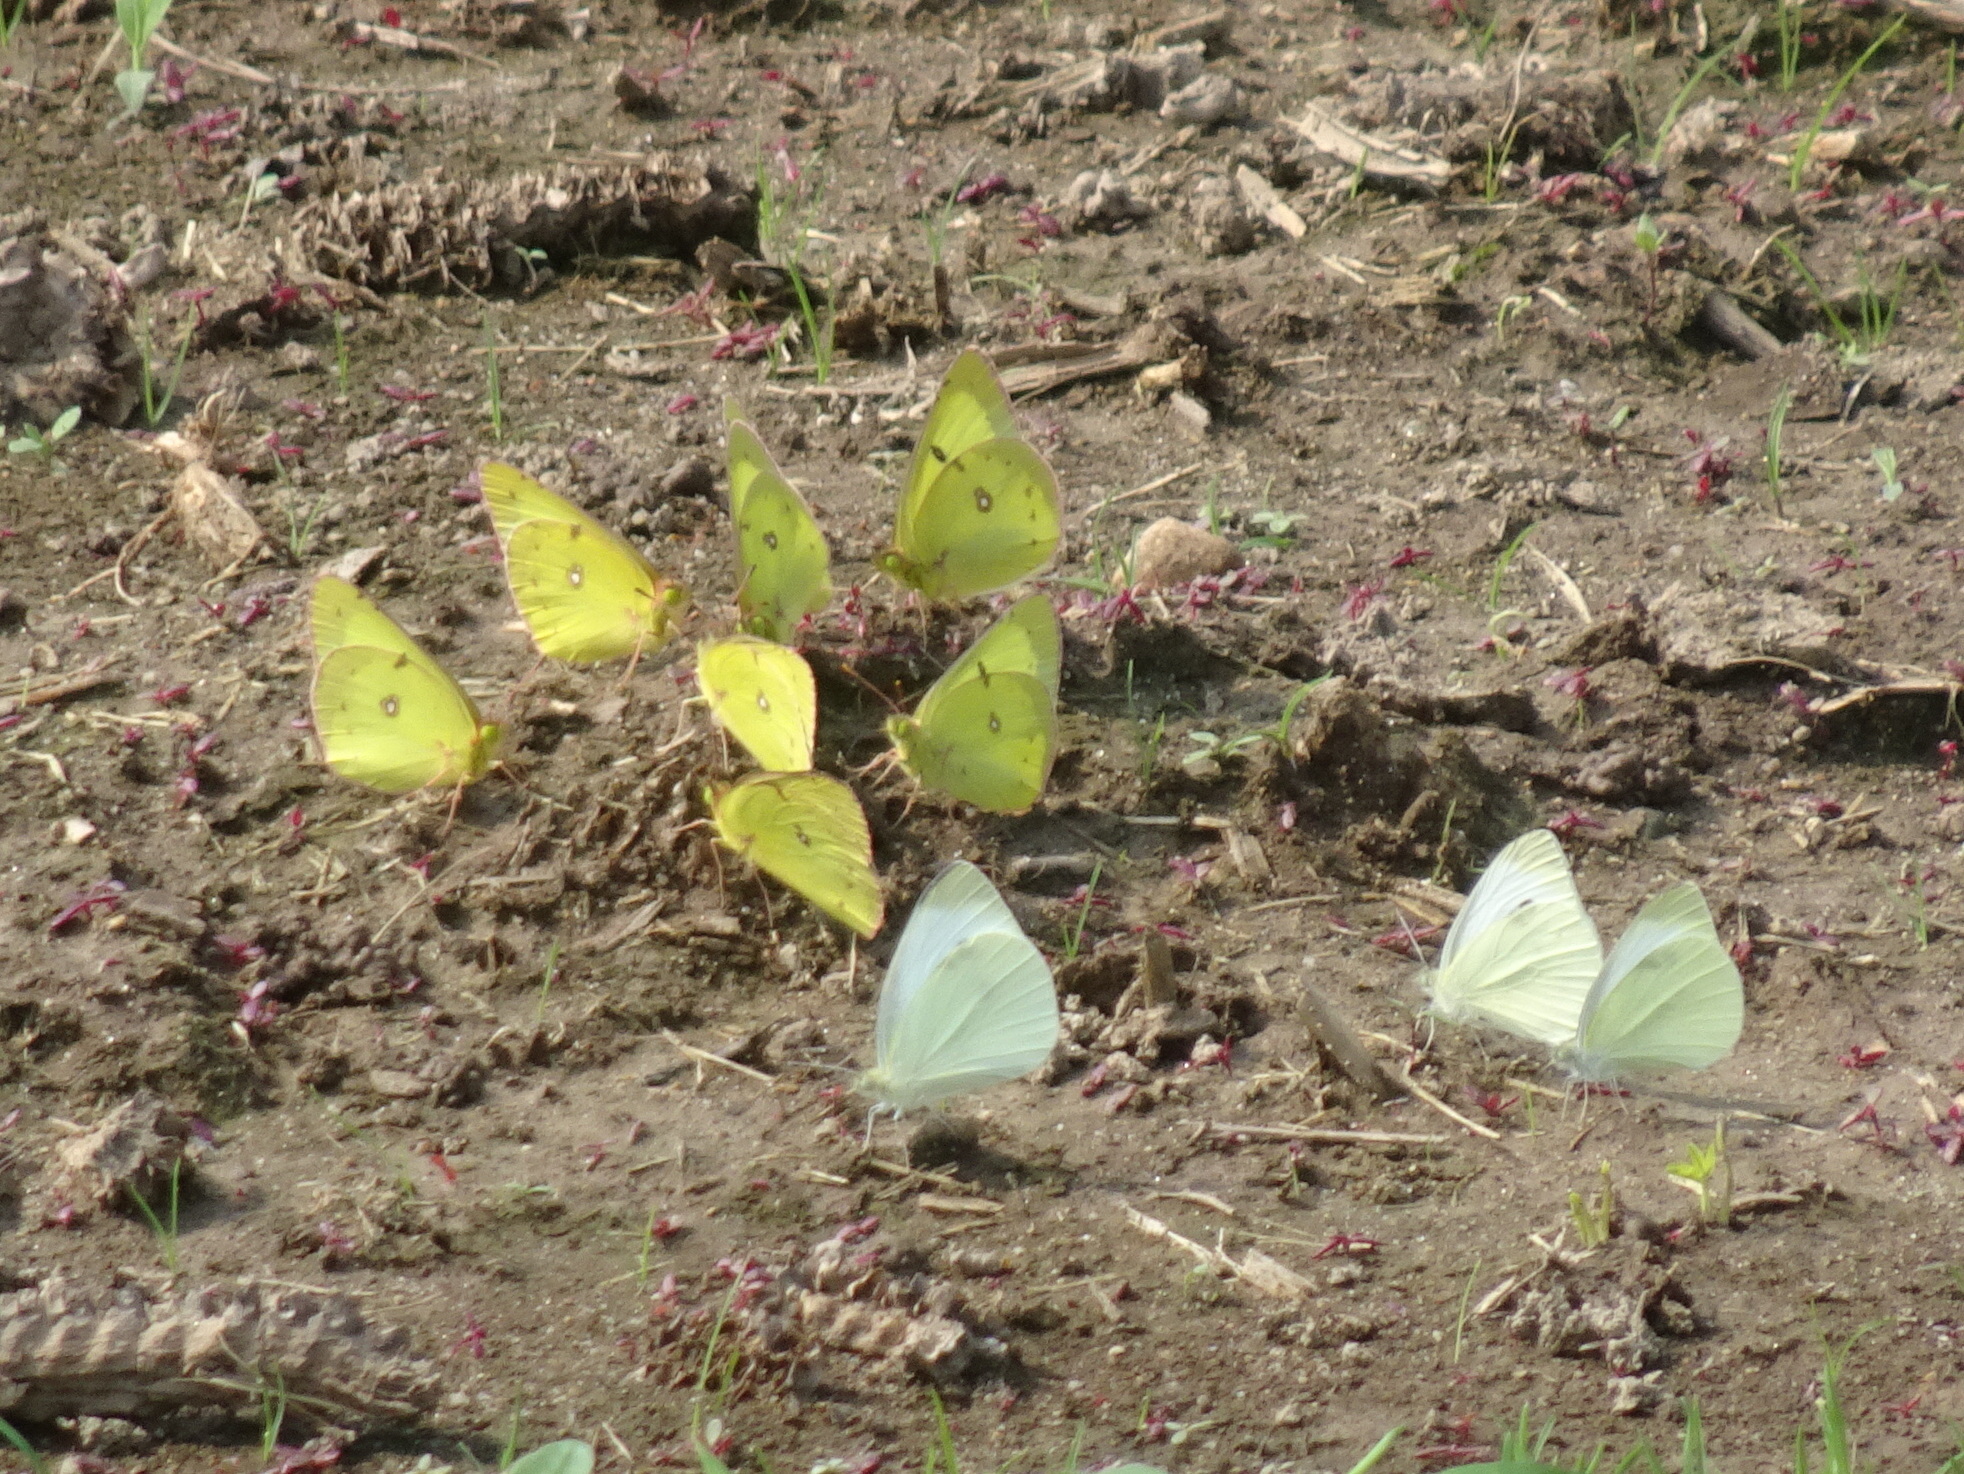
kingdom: Animalia
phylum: Arthropoda
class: Insecta
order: Lepidoptera
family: Pieridae
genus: Pieris
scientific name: Pieris rapae
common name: Small white
